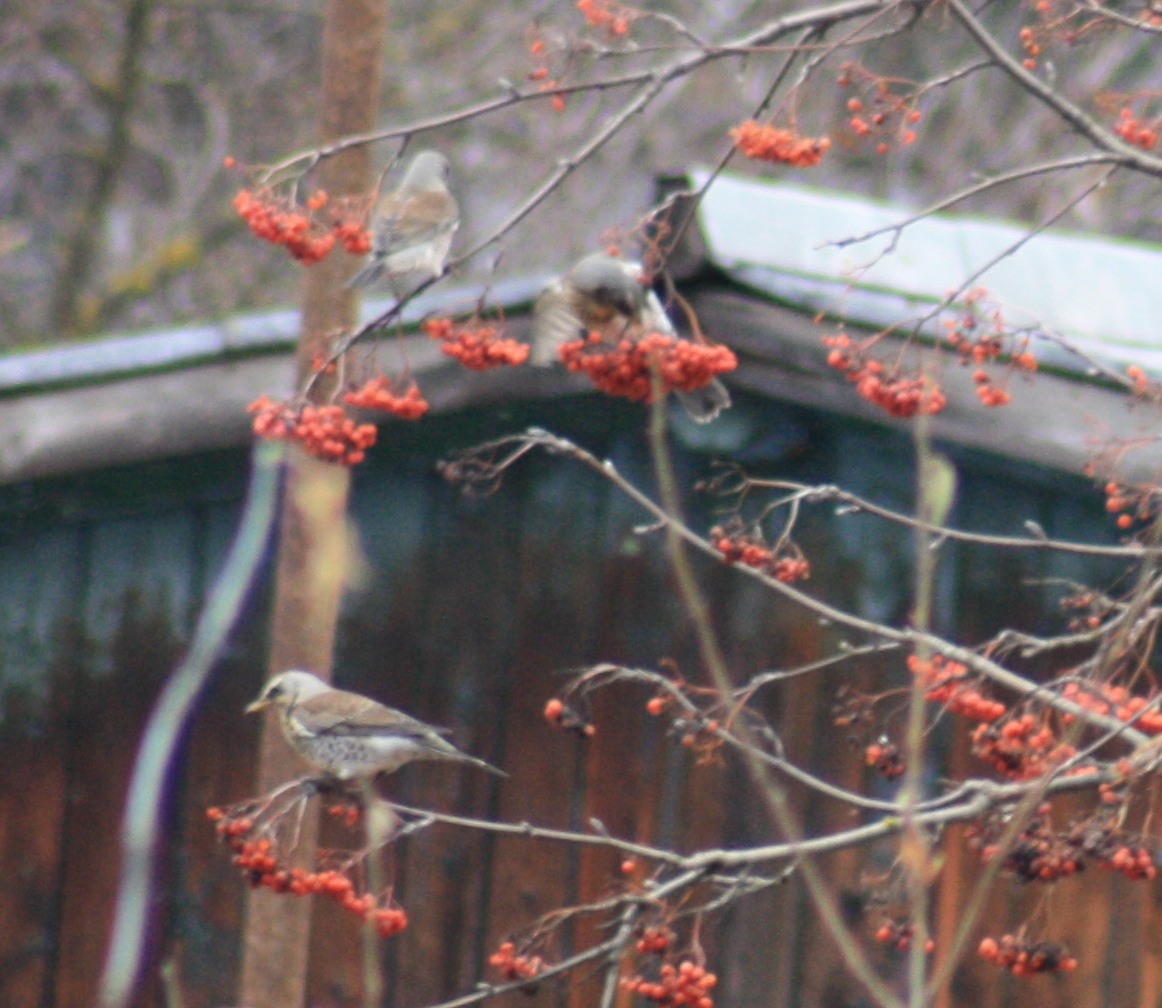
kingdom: Animalia
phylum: Chordata
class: Aves
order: Passeriformes
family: Turdidae
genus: Turdus
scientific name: Turdus pilaris
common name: Fieldfare
